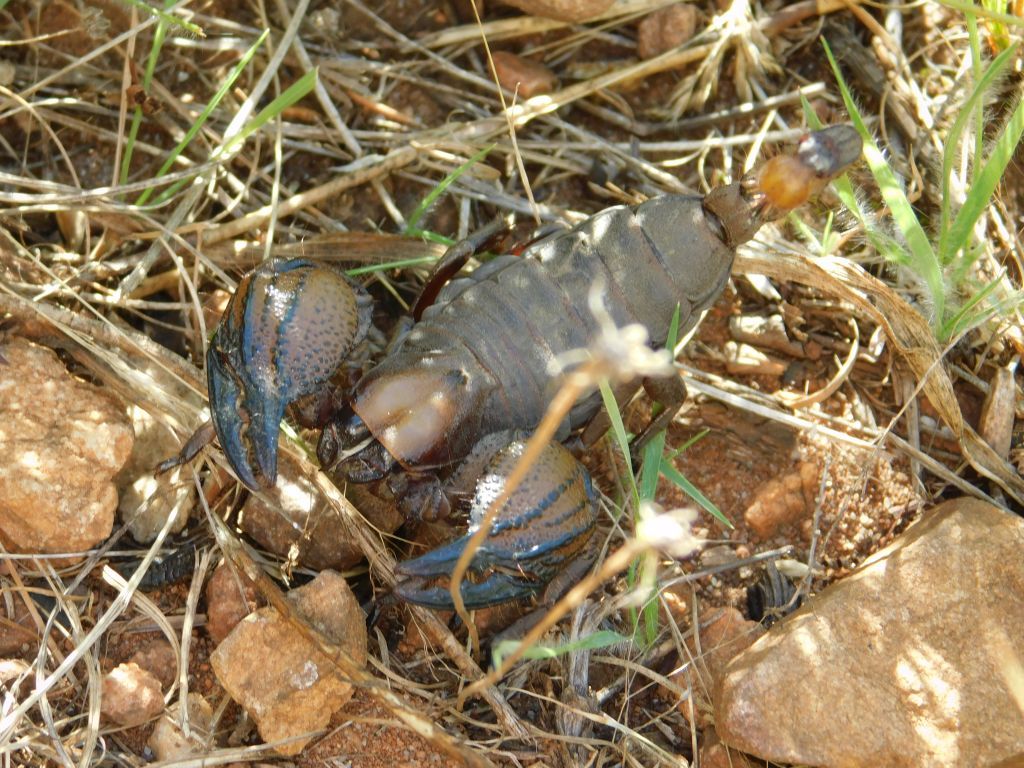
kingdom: Animalia
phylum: Arthropoda
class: Arachnida
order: Scorpiones
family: Scorpionidae
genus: Opistophthalmus
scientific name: Opistophthalmus macer
